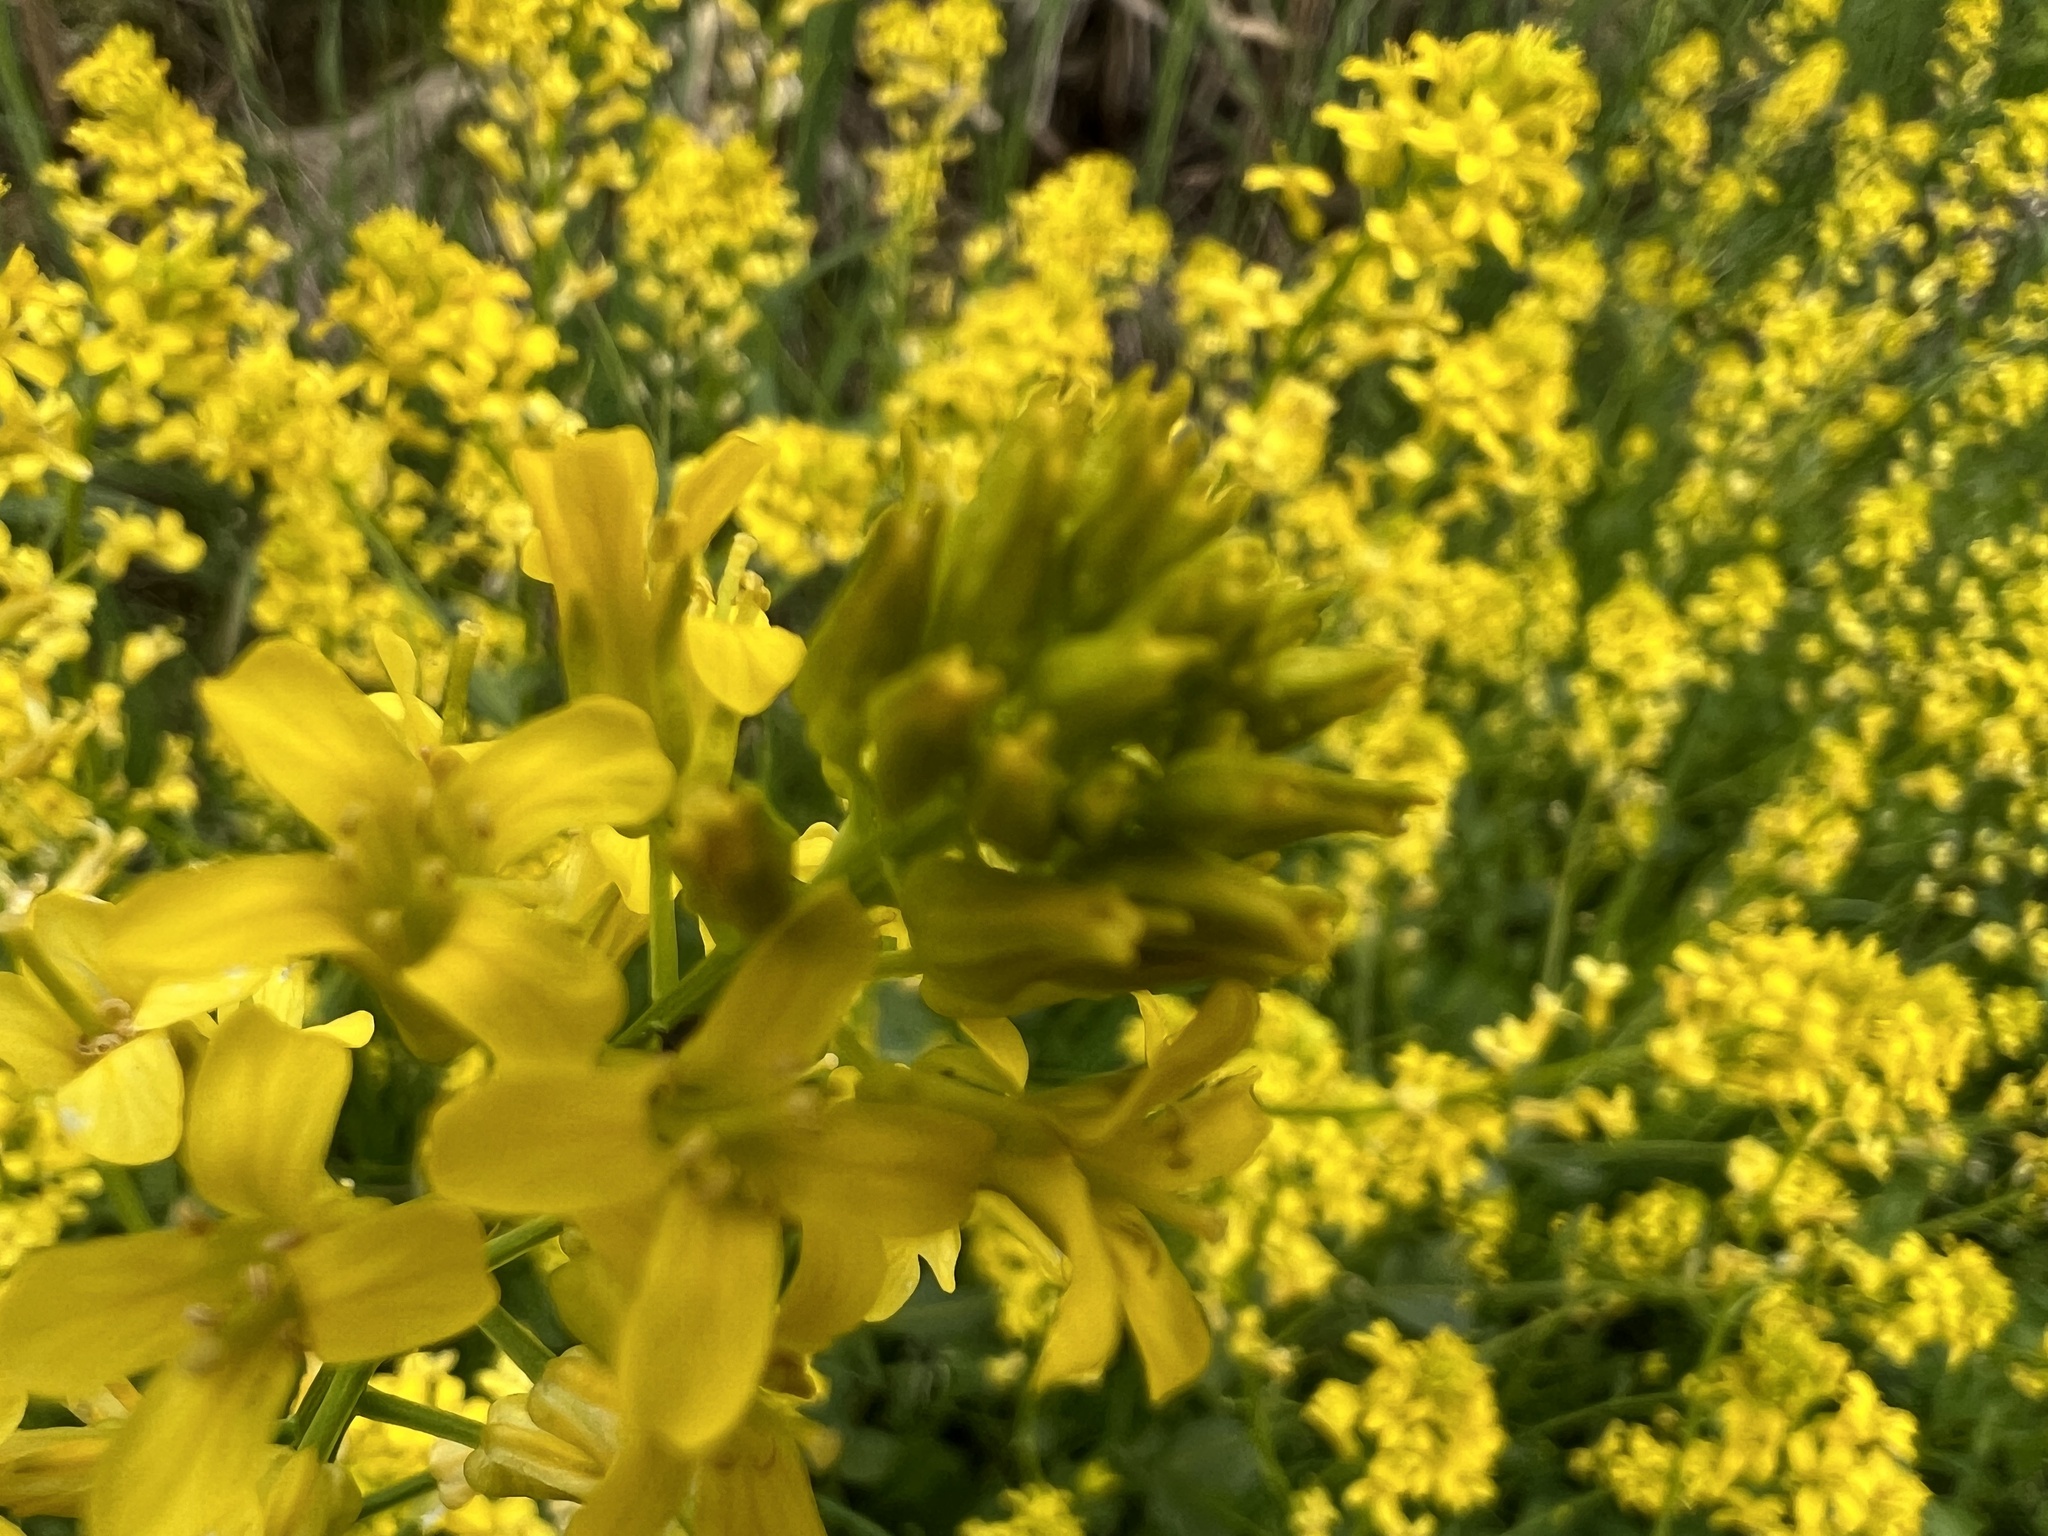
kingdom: Plantae
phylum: Tracheophyta
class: Magnoliopsida
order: Brassicales
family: Brassicaceae
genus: Barbarea
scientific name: Barbarea vulgaris
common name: Cressy-greens
